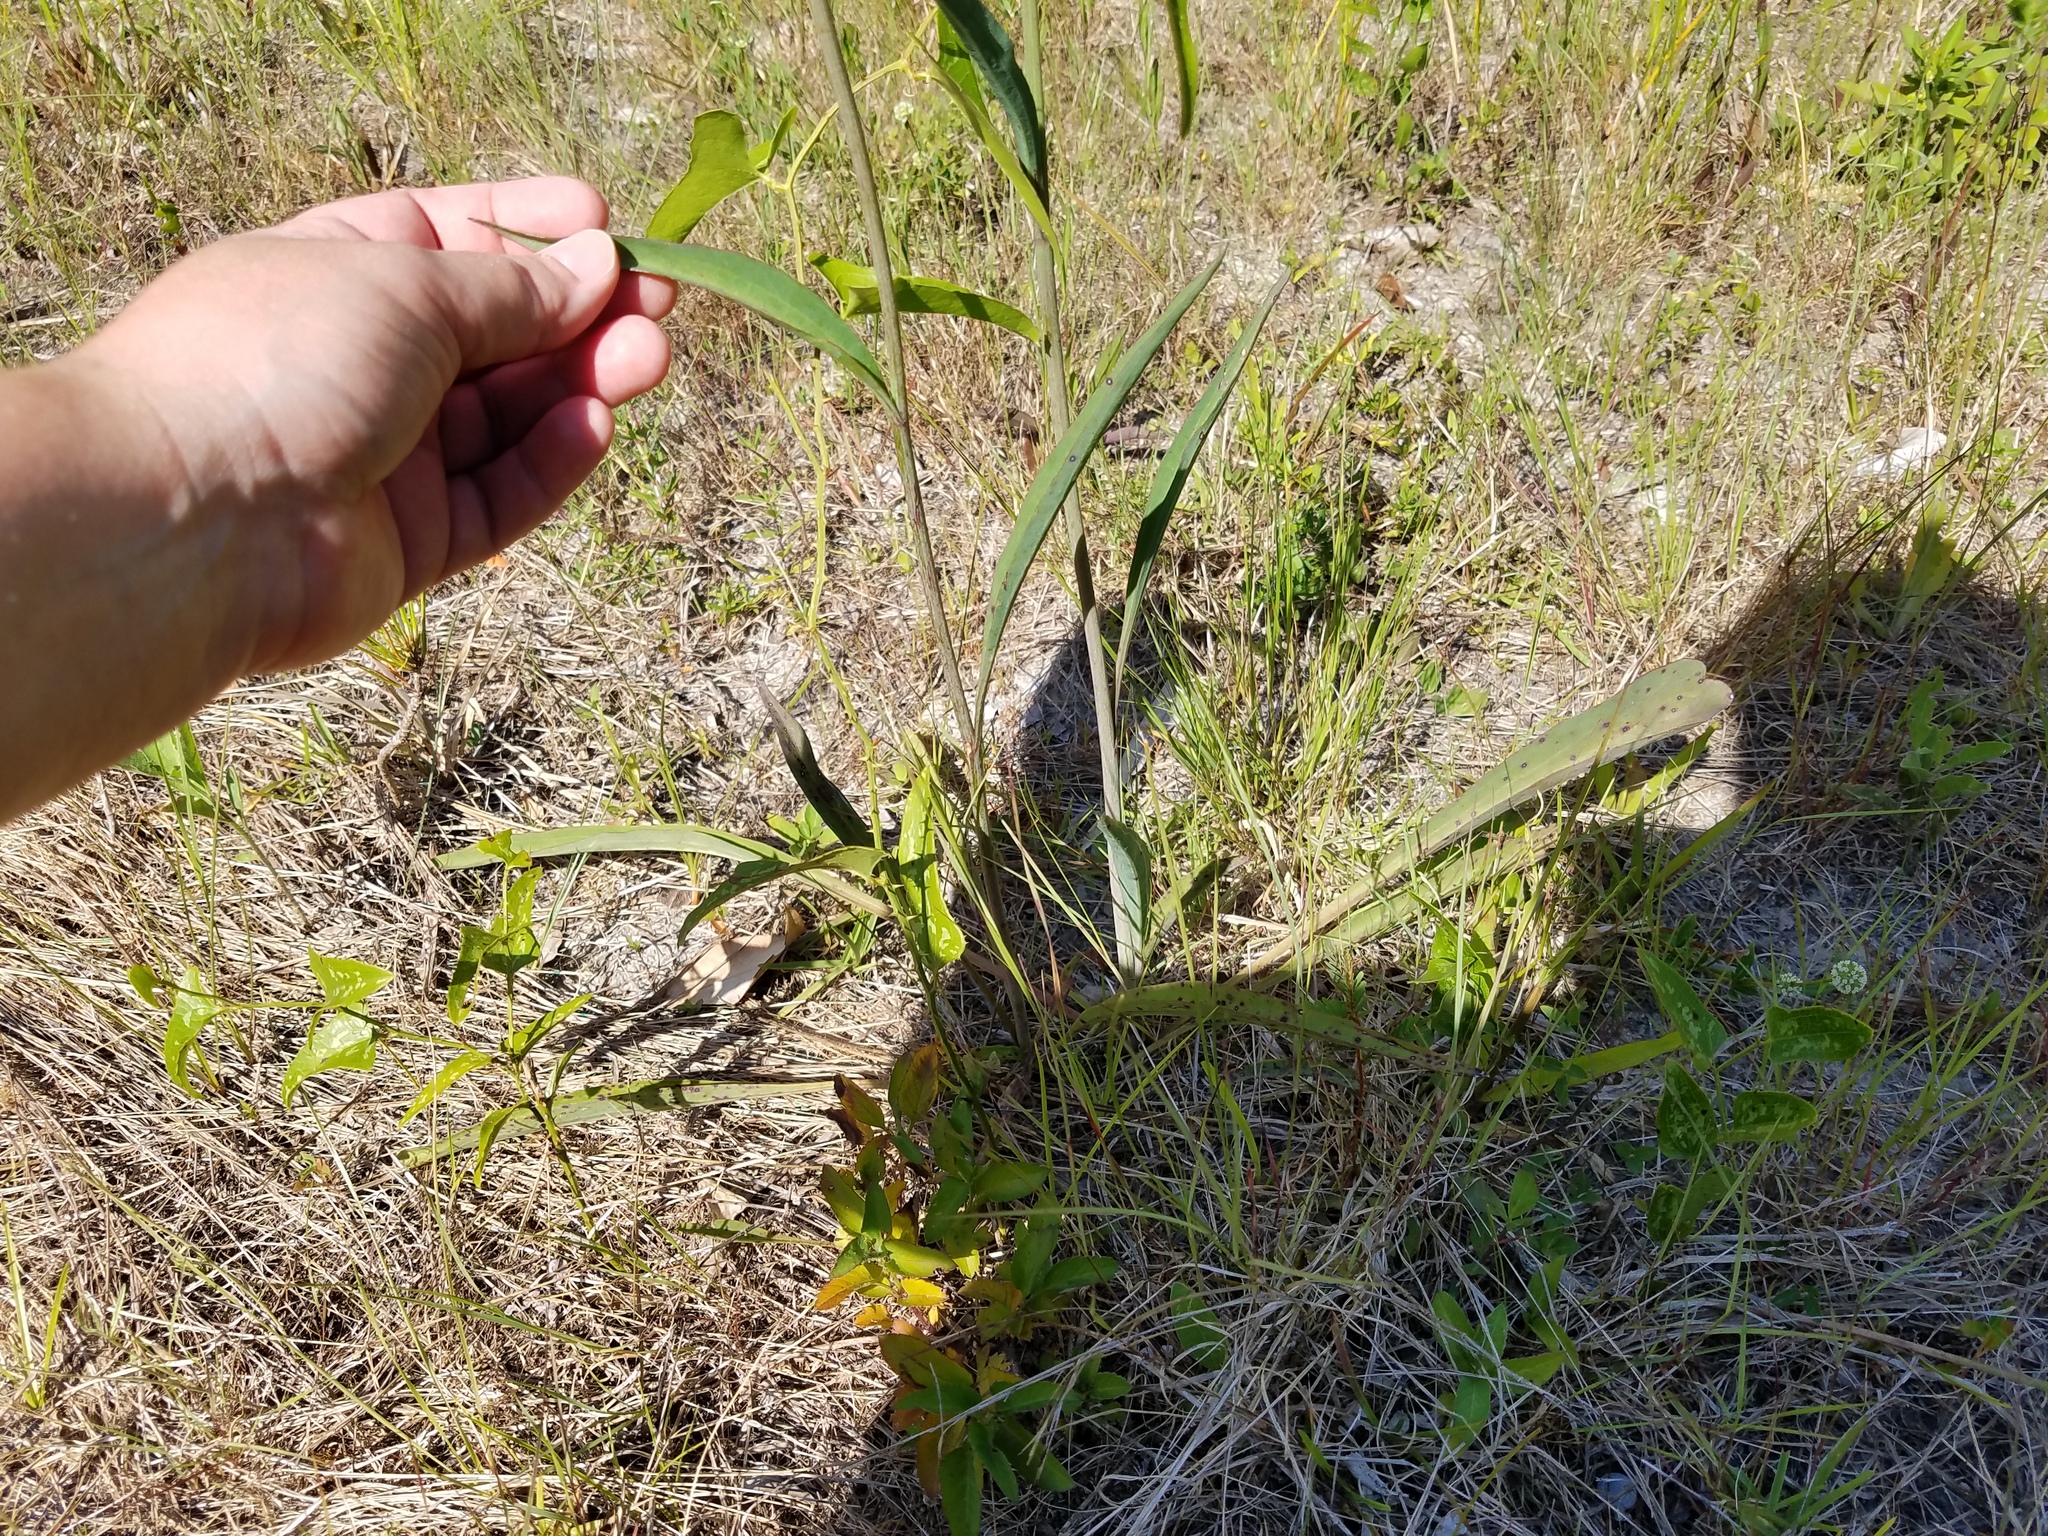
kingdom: Plantae
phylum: Tracheophyta
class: Magnoliopsida
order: Asterales
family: Asteraceae
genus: Arnoglossum
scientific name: Arnoglossum ovatum
